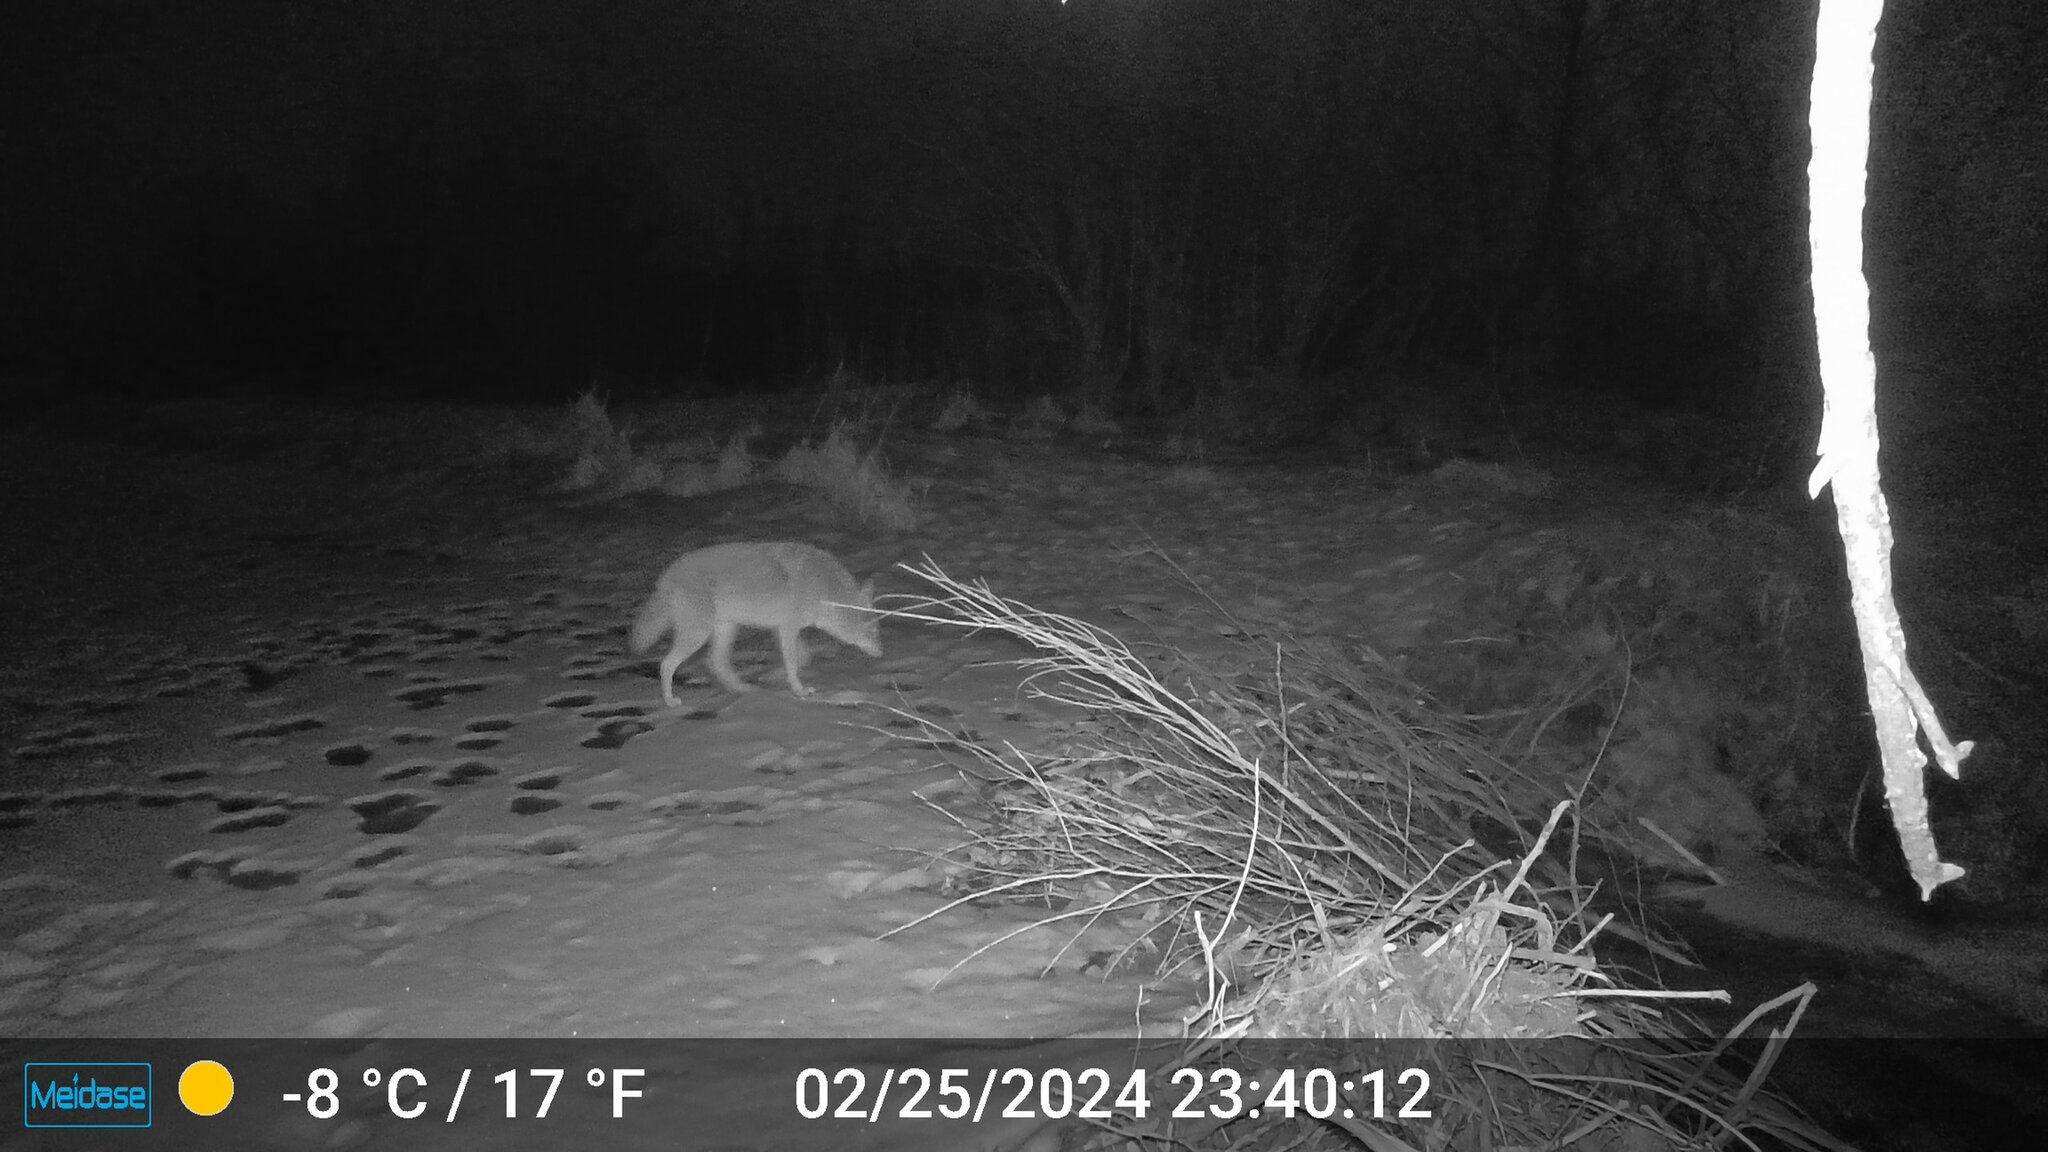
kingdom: Animalia
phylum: Chordata
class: Mammalia
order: Carnivora
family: Canidae
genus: Canis
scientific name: Canis latrans
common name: Coyote
